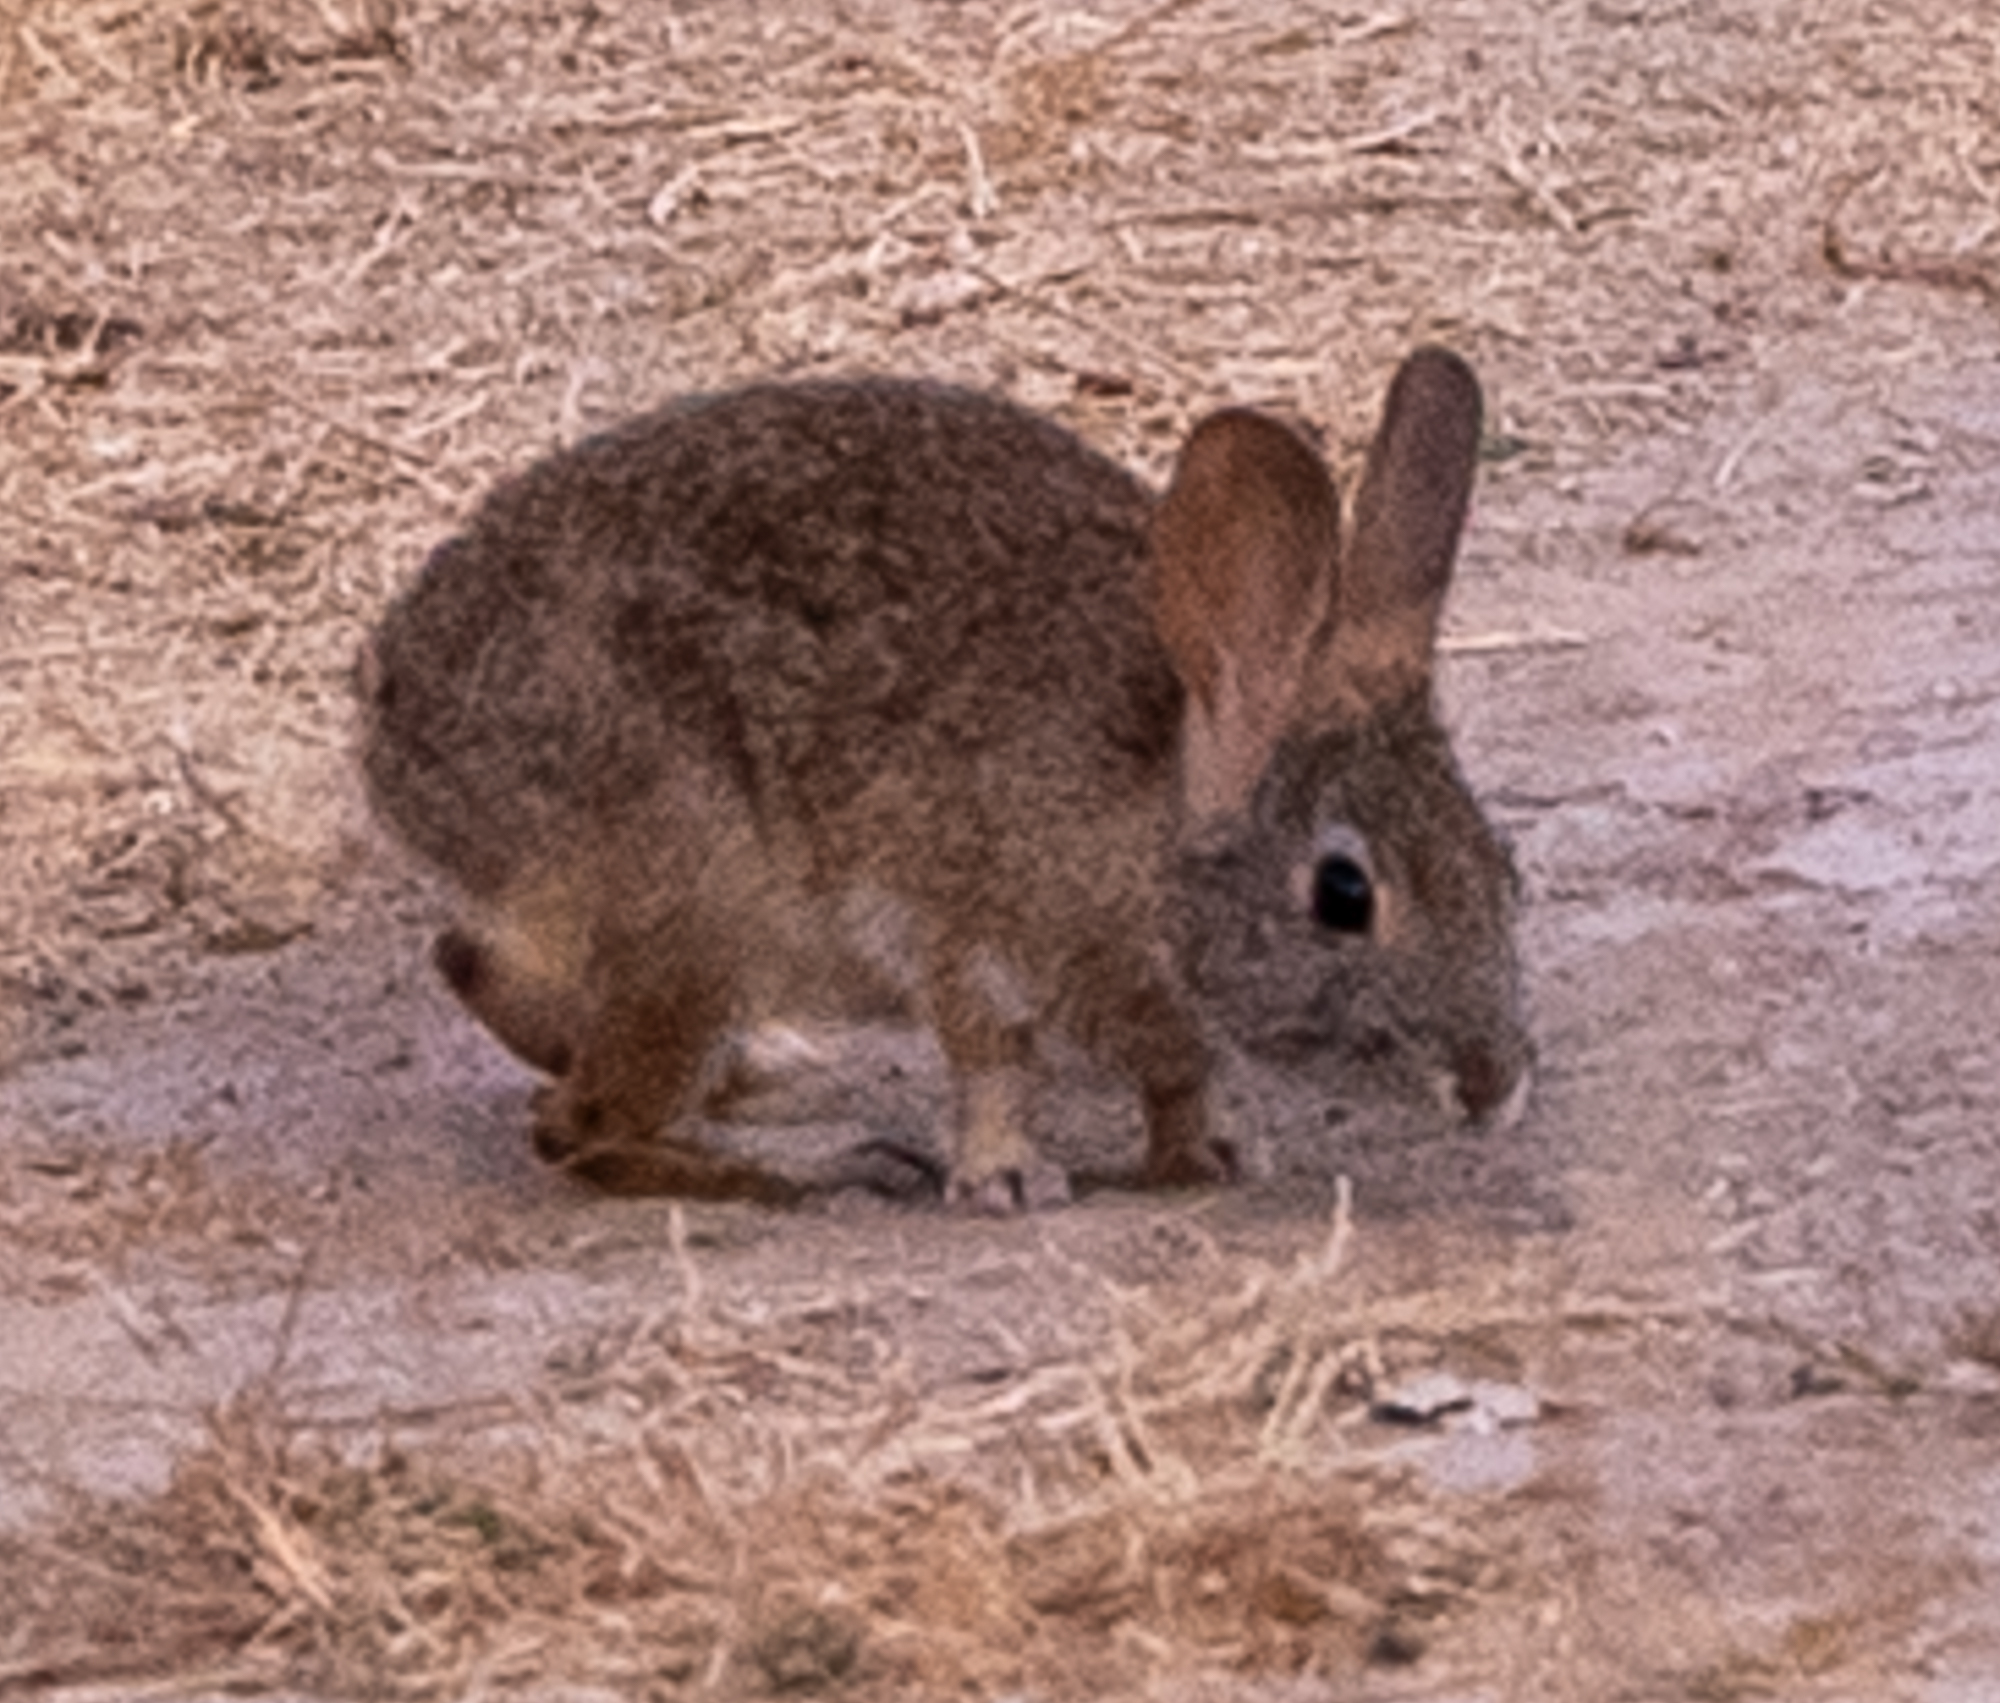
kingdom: Animalia
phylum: Chordata
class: Mammalia
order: Lagomorpha
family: Leporidae
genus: Sylvilagus
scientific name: Sylvilagus bachmani
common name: Brush rabbit
